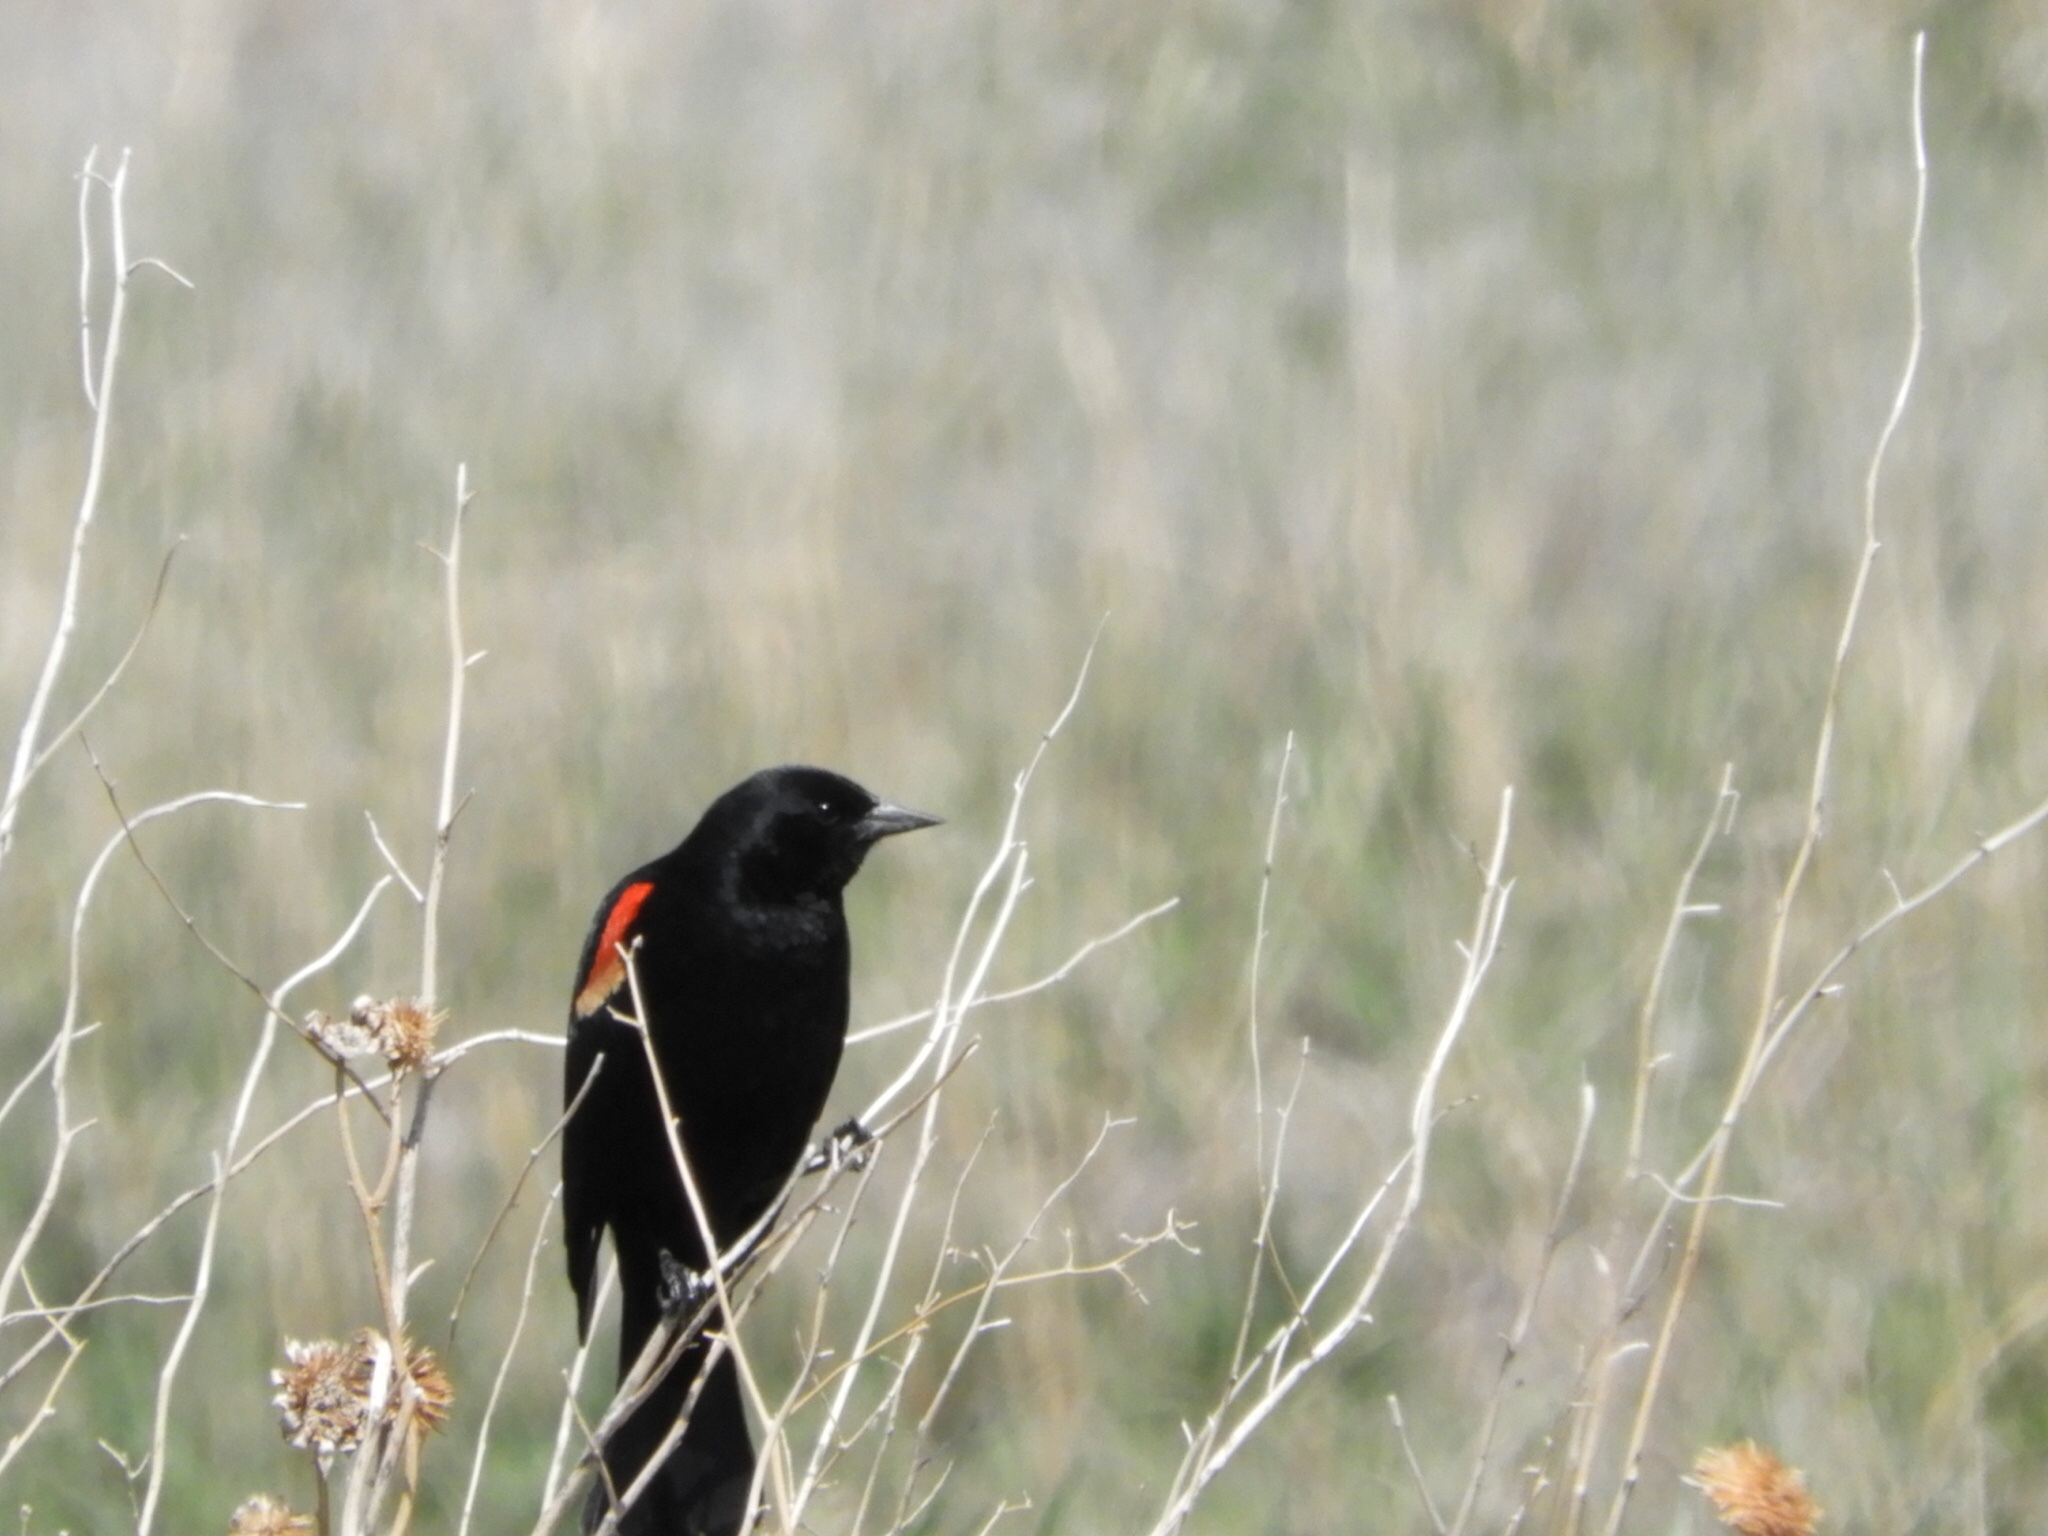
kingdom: Animalia
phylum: Chordata
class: Aves
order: Passeriformes
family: Icteridae
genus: Agelaius
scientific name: Agelaius phoeniceus
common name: Red-winged blackbird
